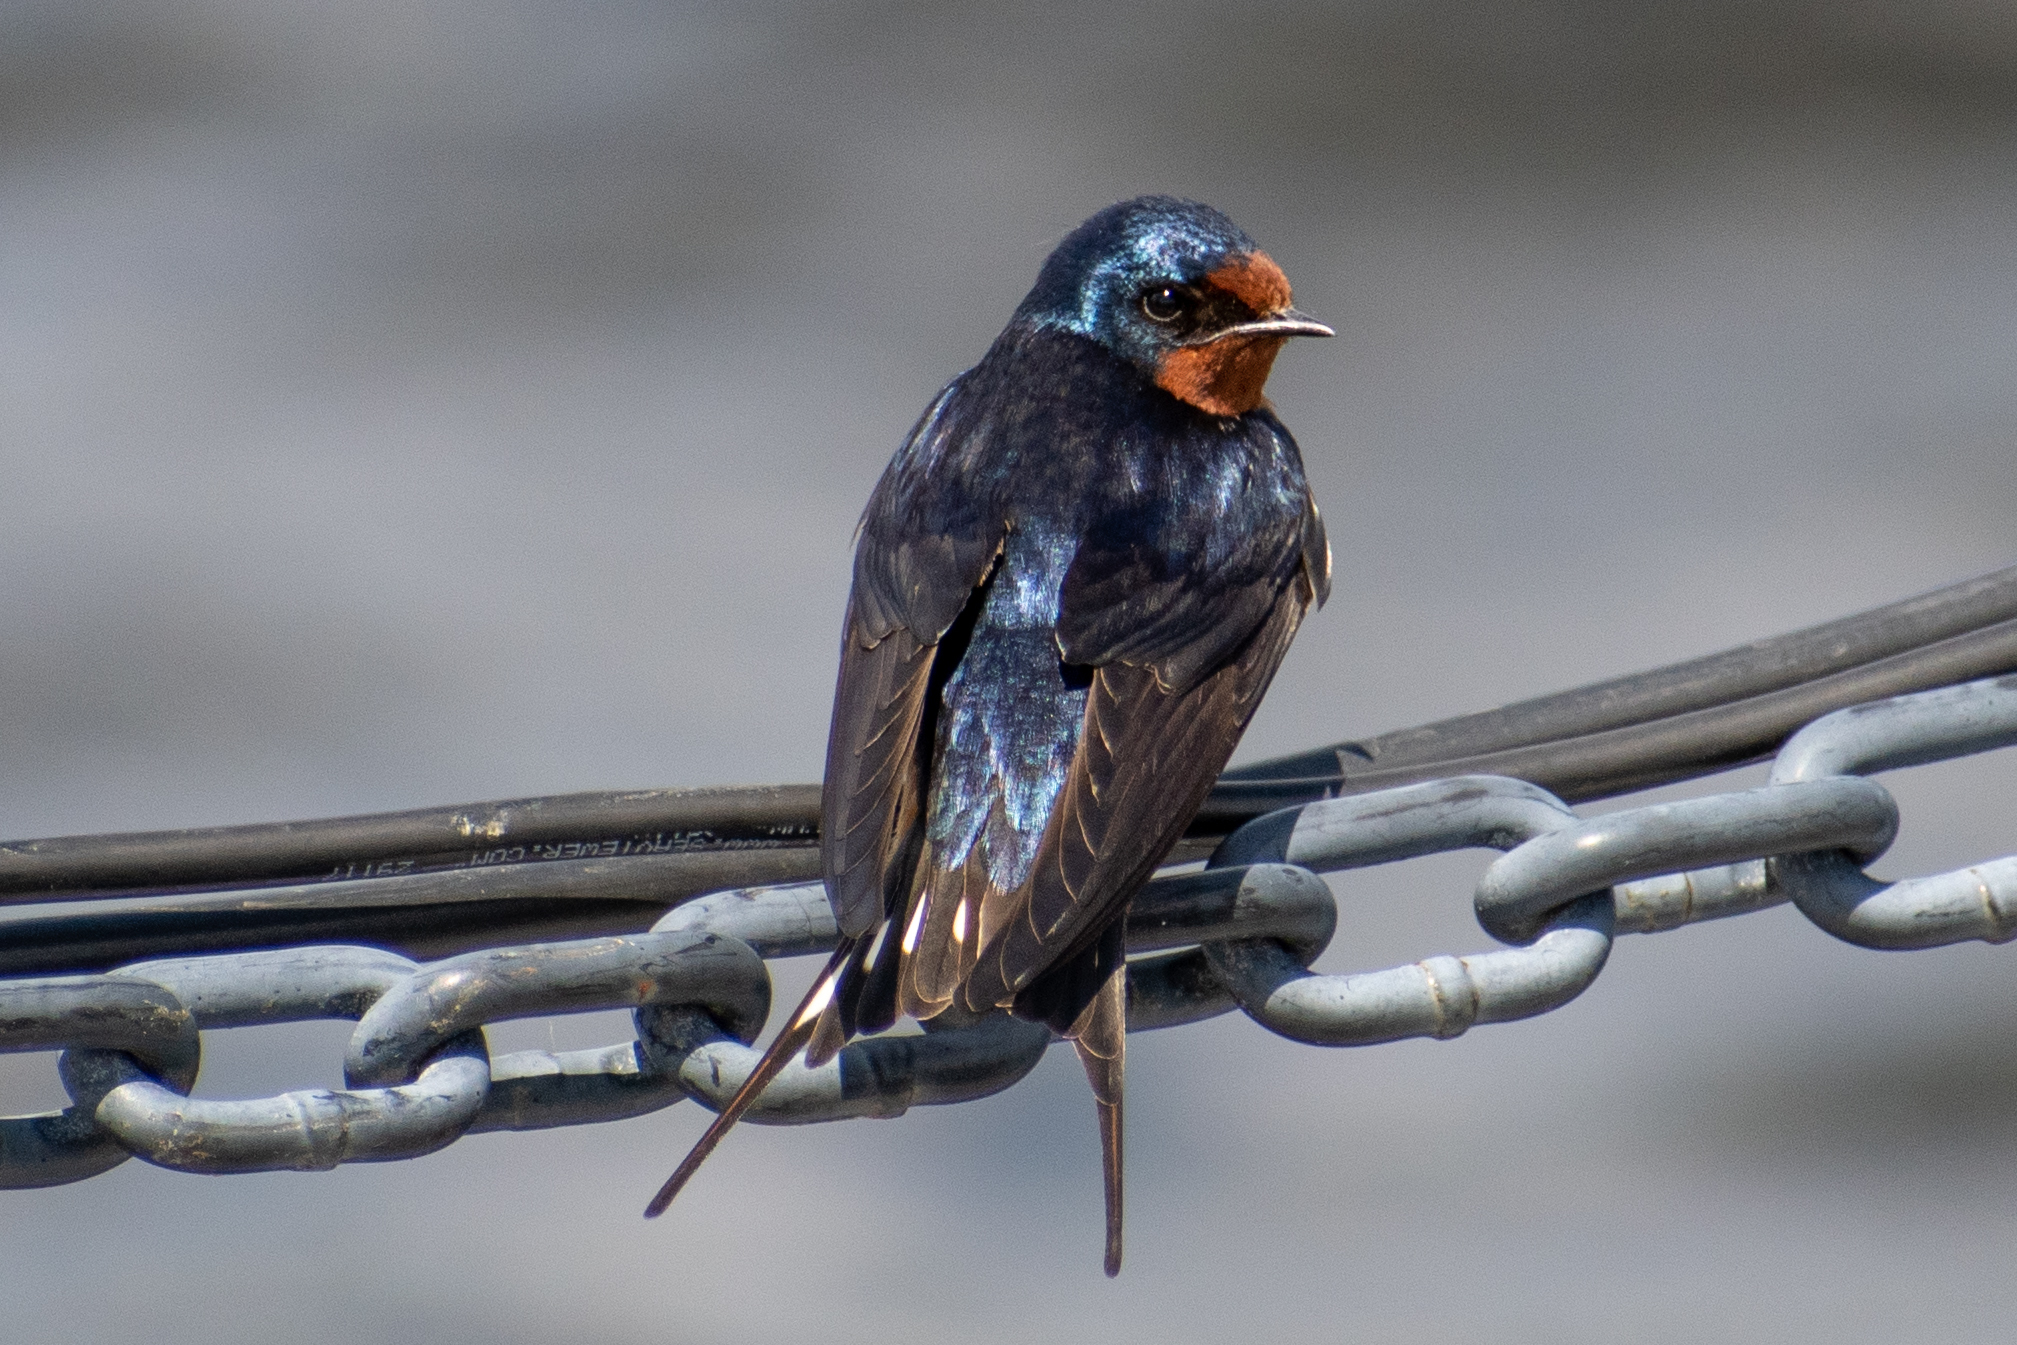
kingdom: Animalia
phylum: Chordata
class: Aves
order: Passeriformes
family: Hirundinidae
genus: Hirundo
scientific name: Hirundo rustica
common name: Barn swallow
